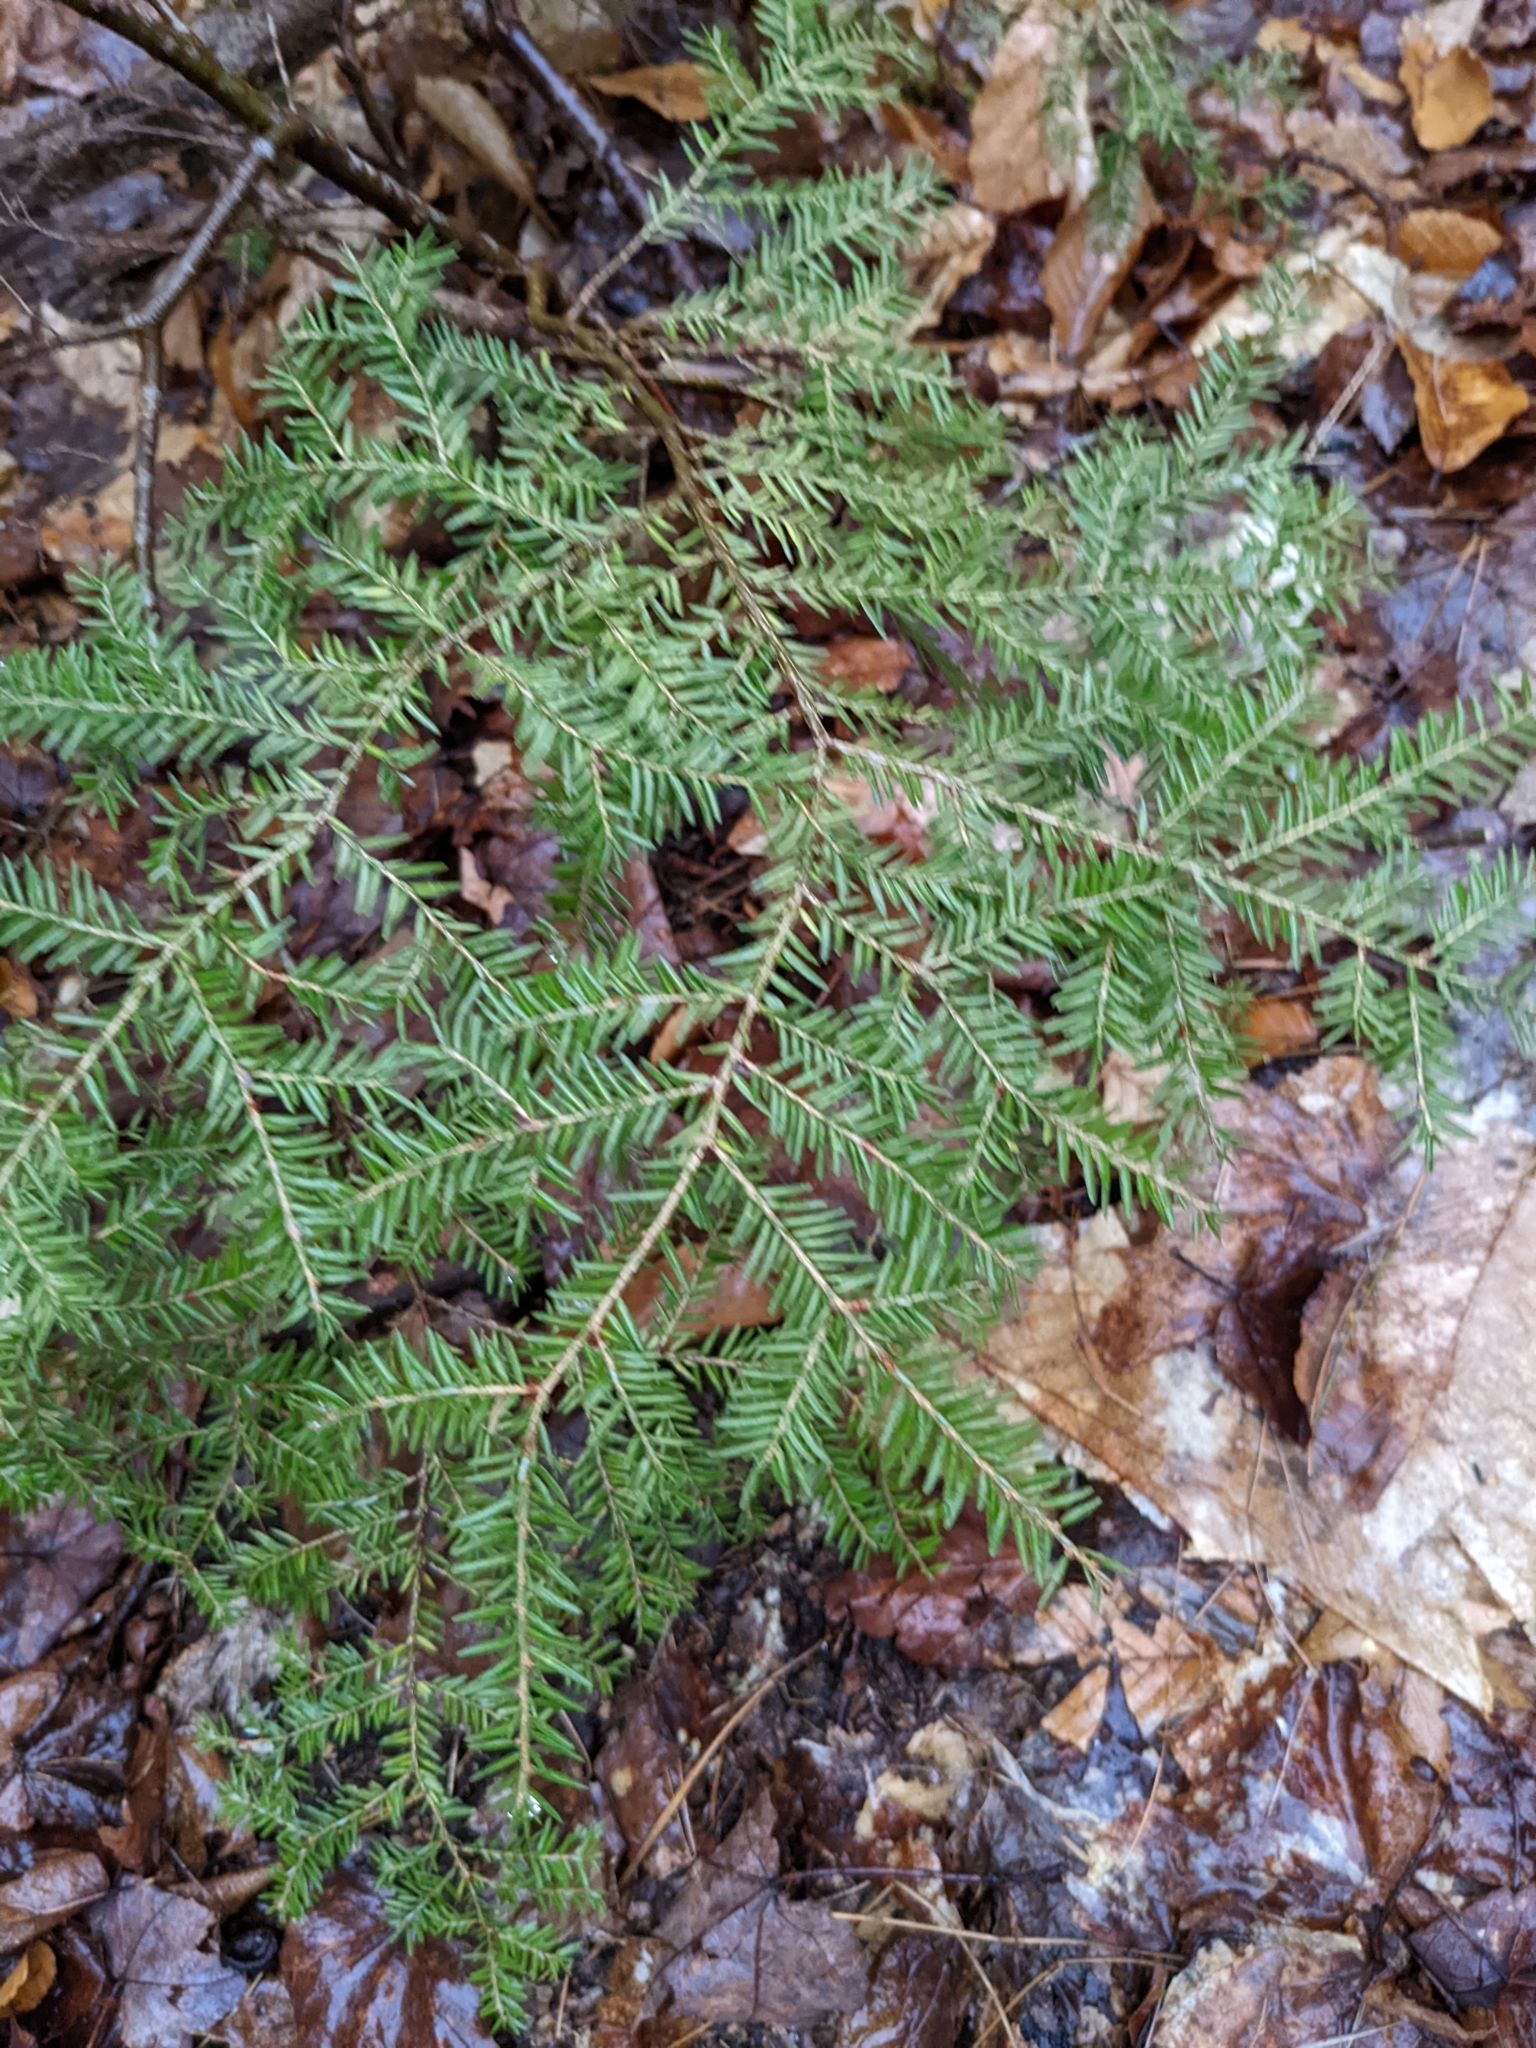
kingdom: Plantae
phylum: Tracheophyta
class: Pinopsida
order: Pinales
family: Pinaceae
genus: Tsuga
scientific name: Tsuga canadensis
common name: Eastern hemlock
